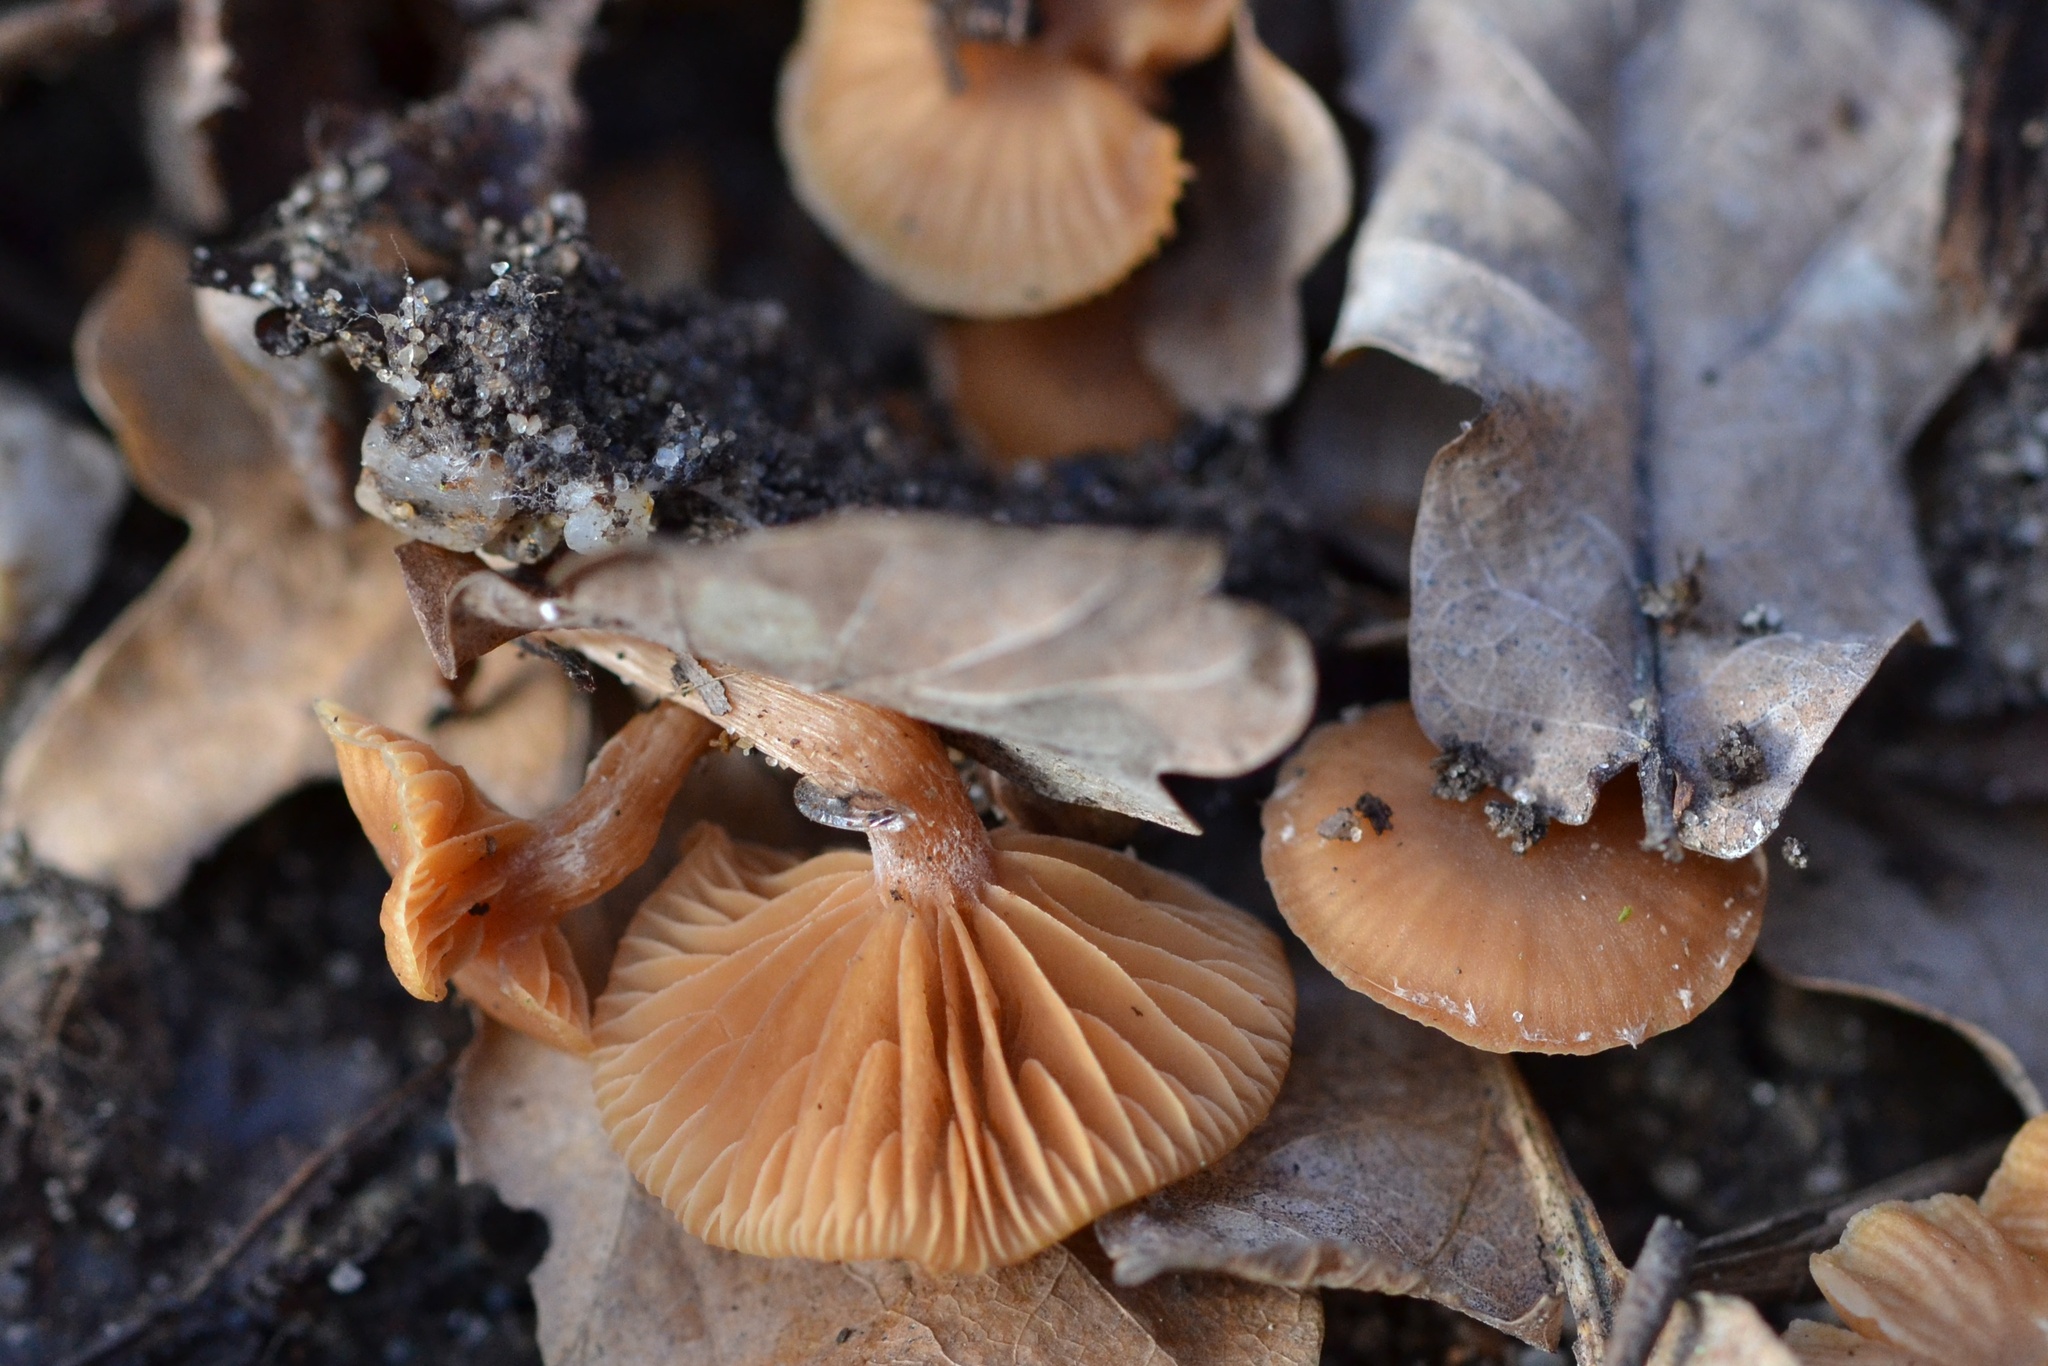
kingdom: Fungi
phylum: Basidiomycota
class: Agaricomycetes
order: Agaricales
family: Tubariaceae
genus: Tubaria
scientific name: Tubaria furfuracea
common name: Scurfy twiglet
